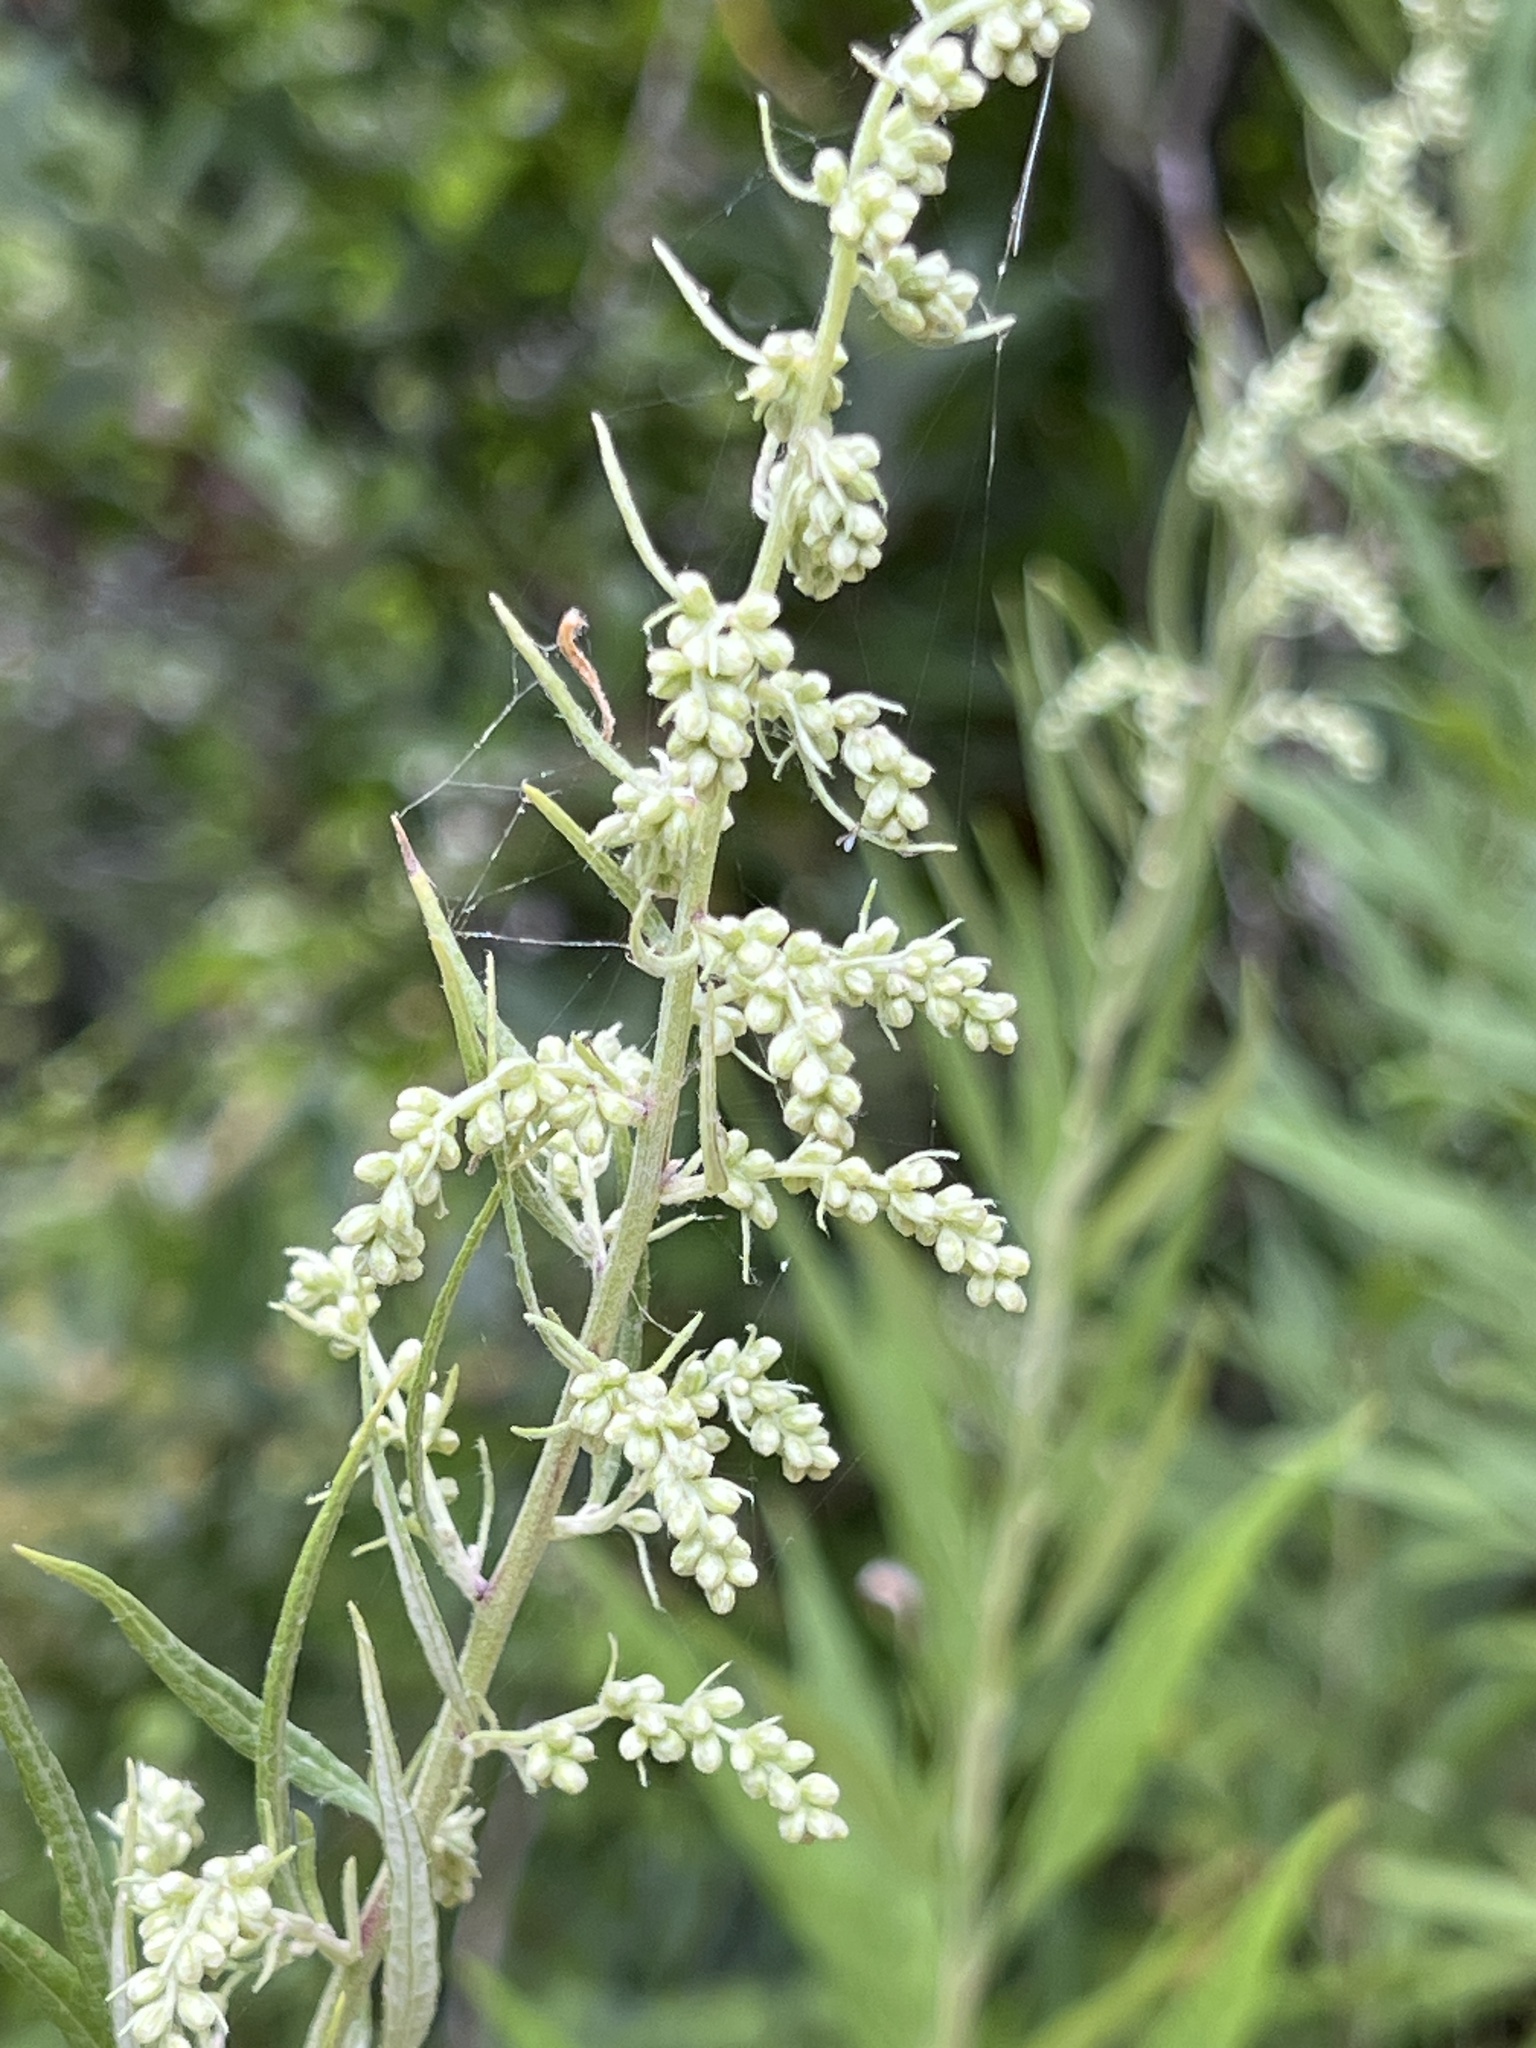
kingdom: Plantae
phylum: Tracheophyta
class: Magnoliopsida
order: Asterales
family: Asteraceae
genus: Artemisia
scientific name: Artemisia douglasiana
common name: Northwest mugwort
